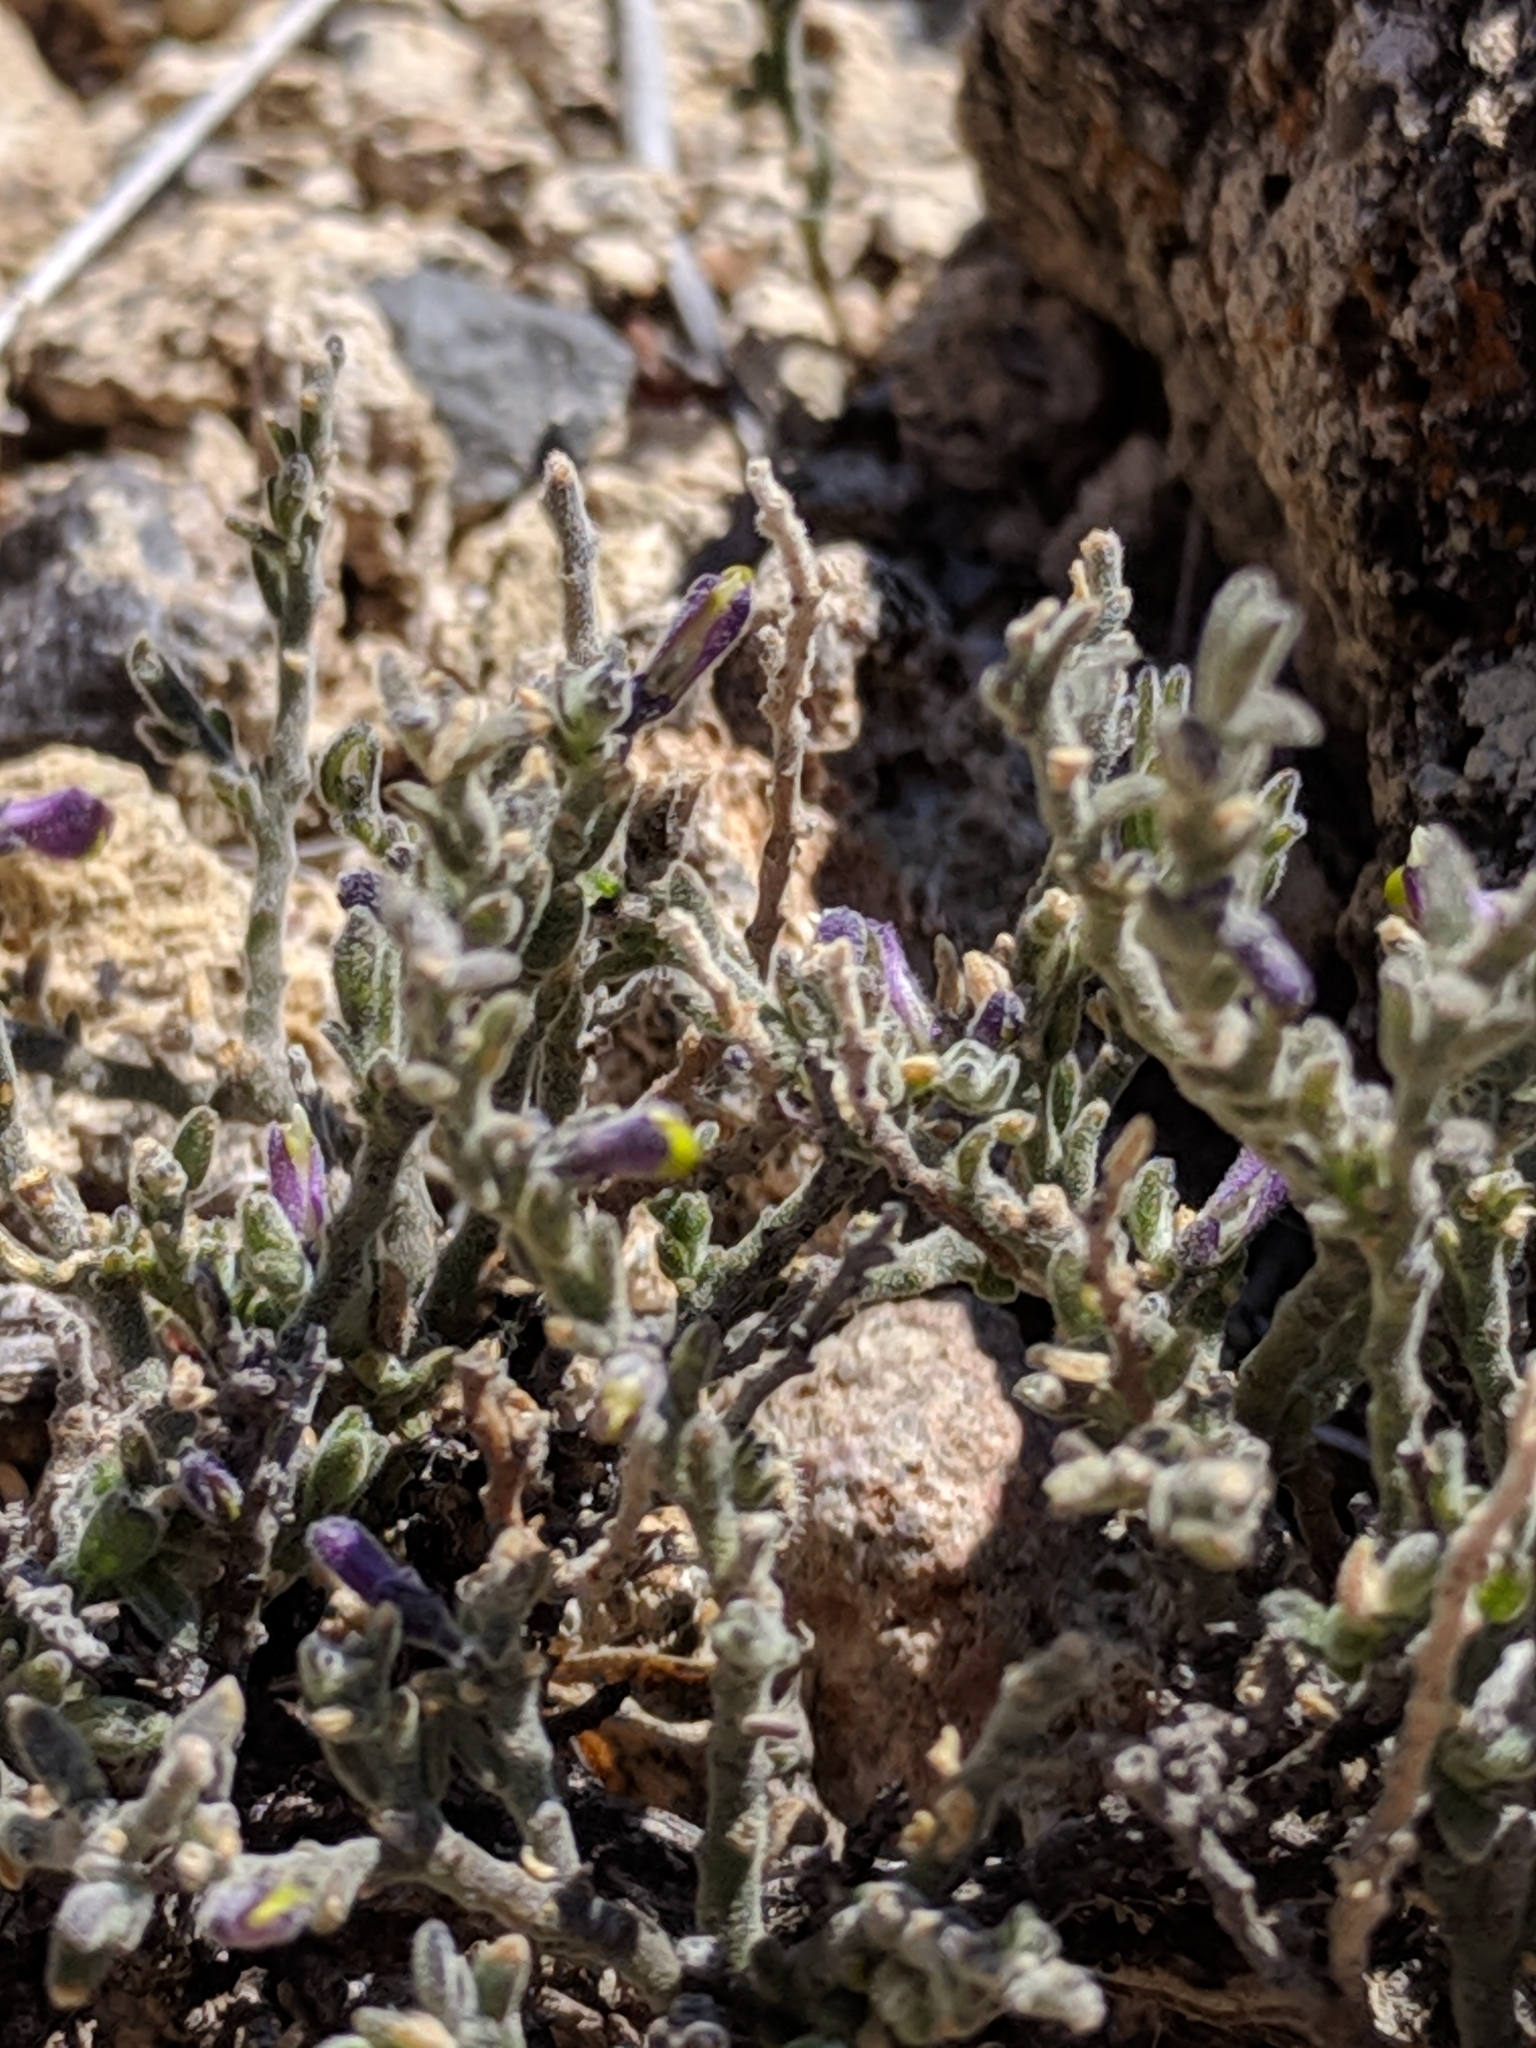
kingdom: Plantae
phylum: Tracheophyta
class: Magnoliopsida
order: Fabales
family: Polygalaceae
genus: Hebecarpa
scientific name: Hebecarpa macradenia
